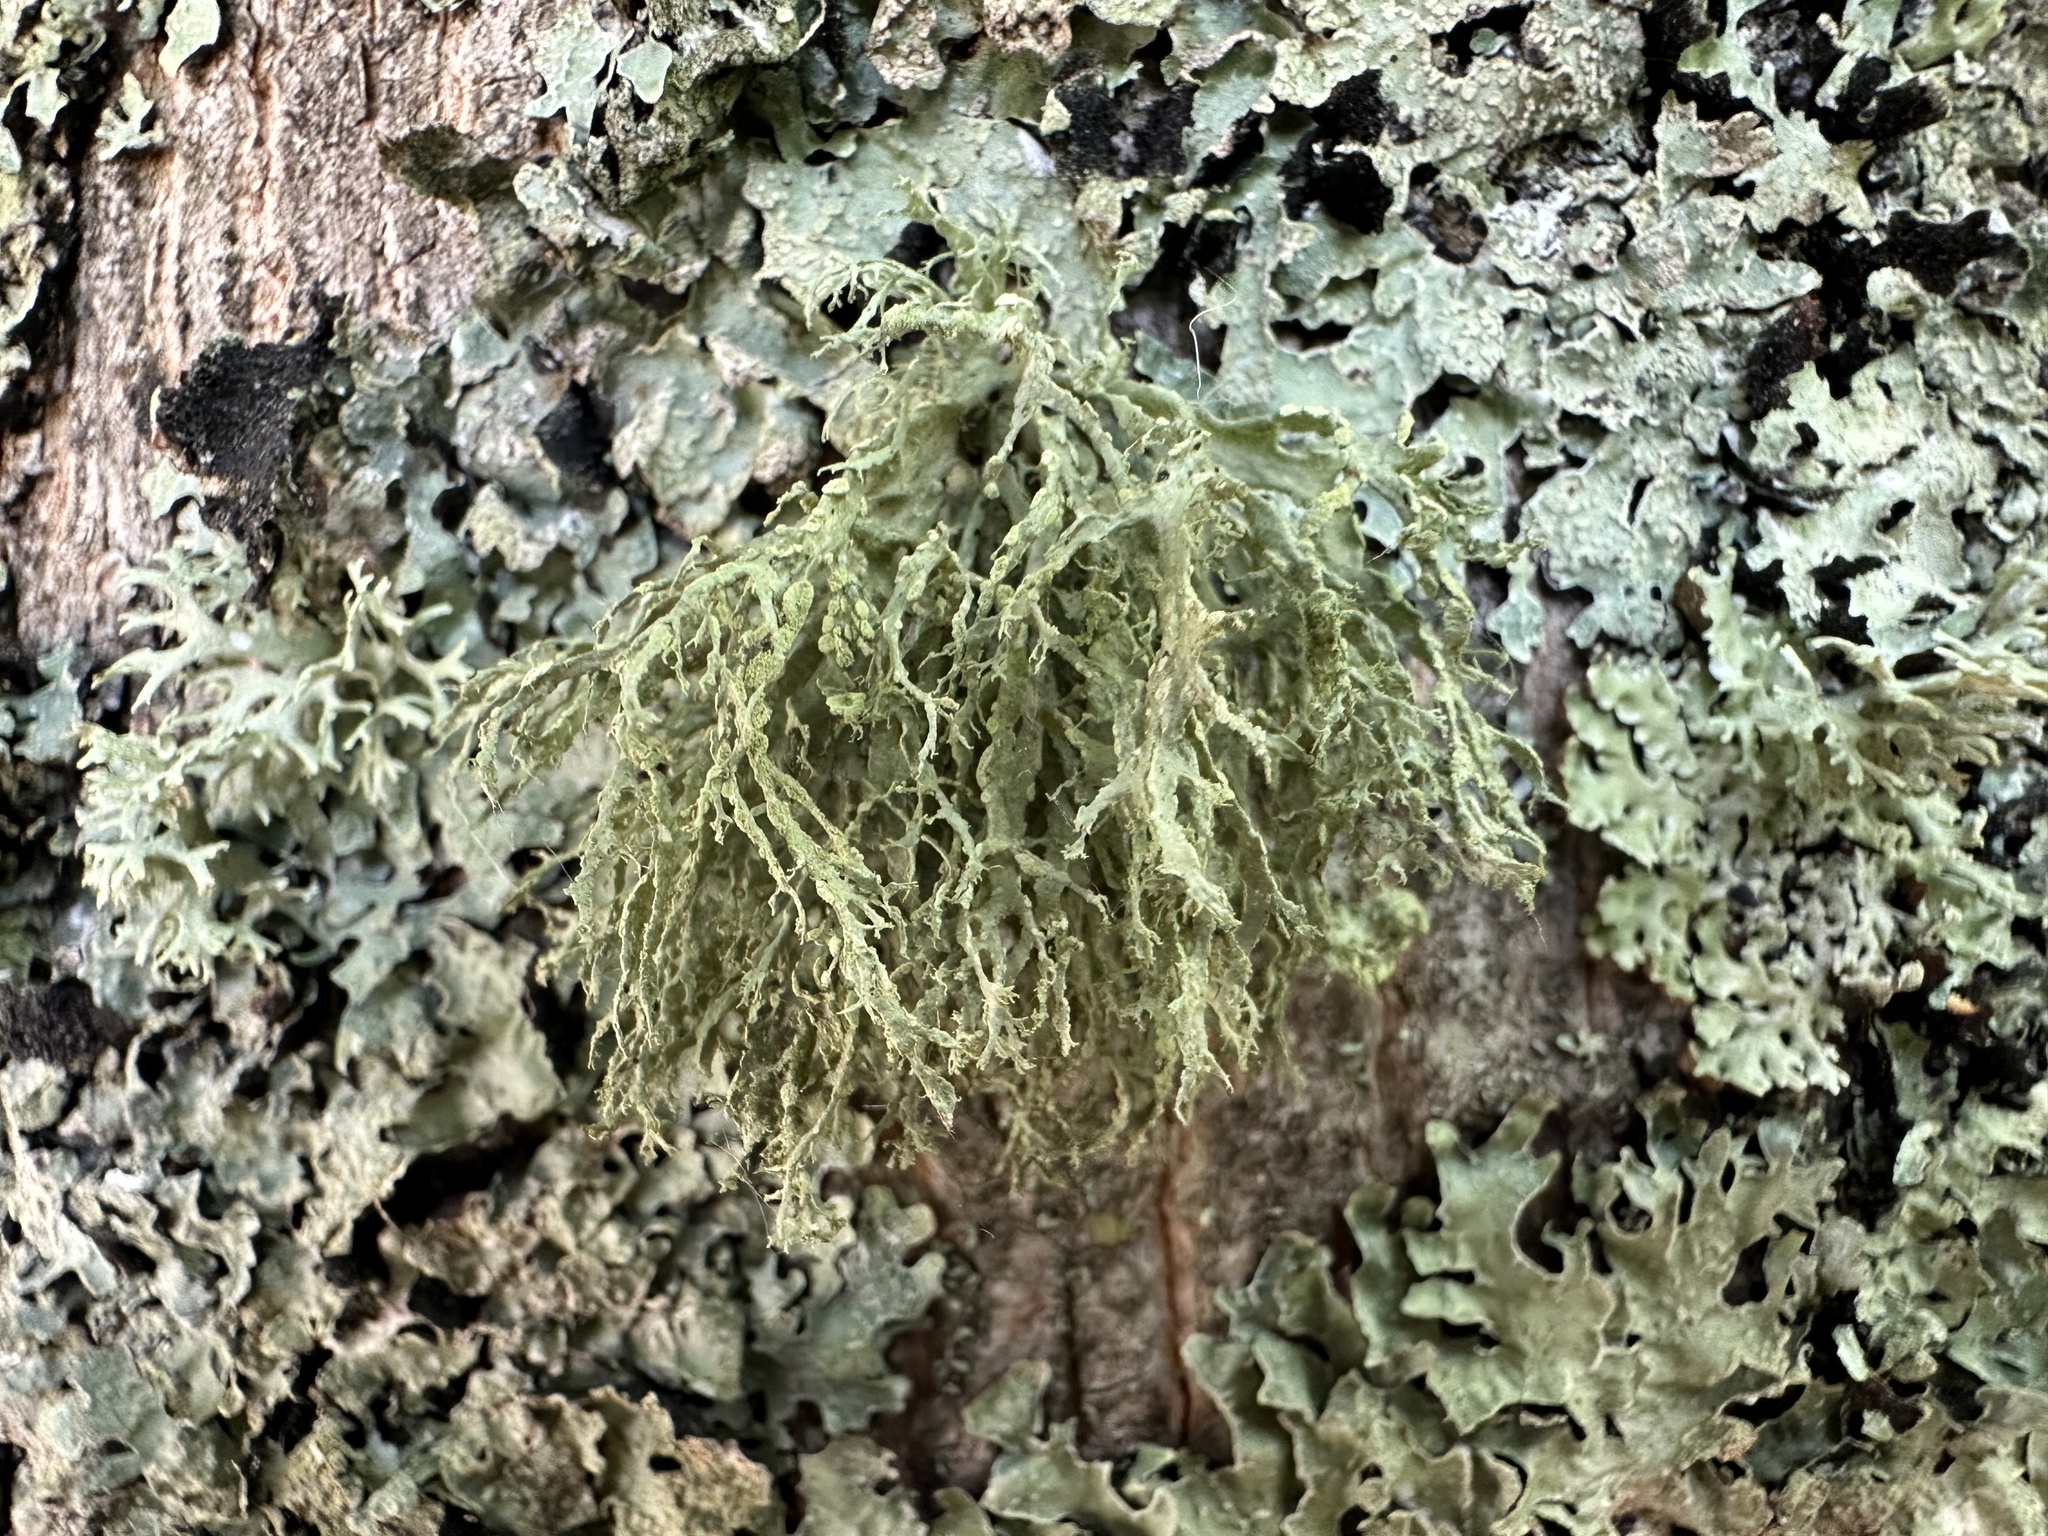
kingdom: Fungi
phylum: Ascomycota
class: Lecanoromycetes
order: Lecanorales
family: Ramalinaceae
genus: Ramalina
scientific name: Ramalina farinacea
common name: Farinose cartilage lichen
